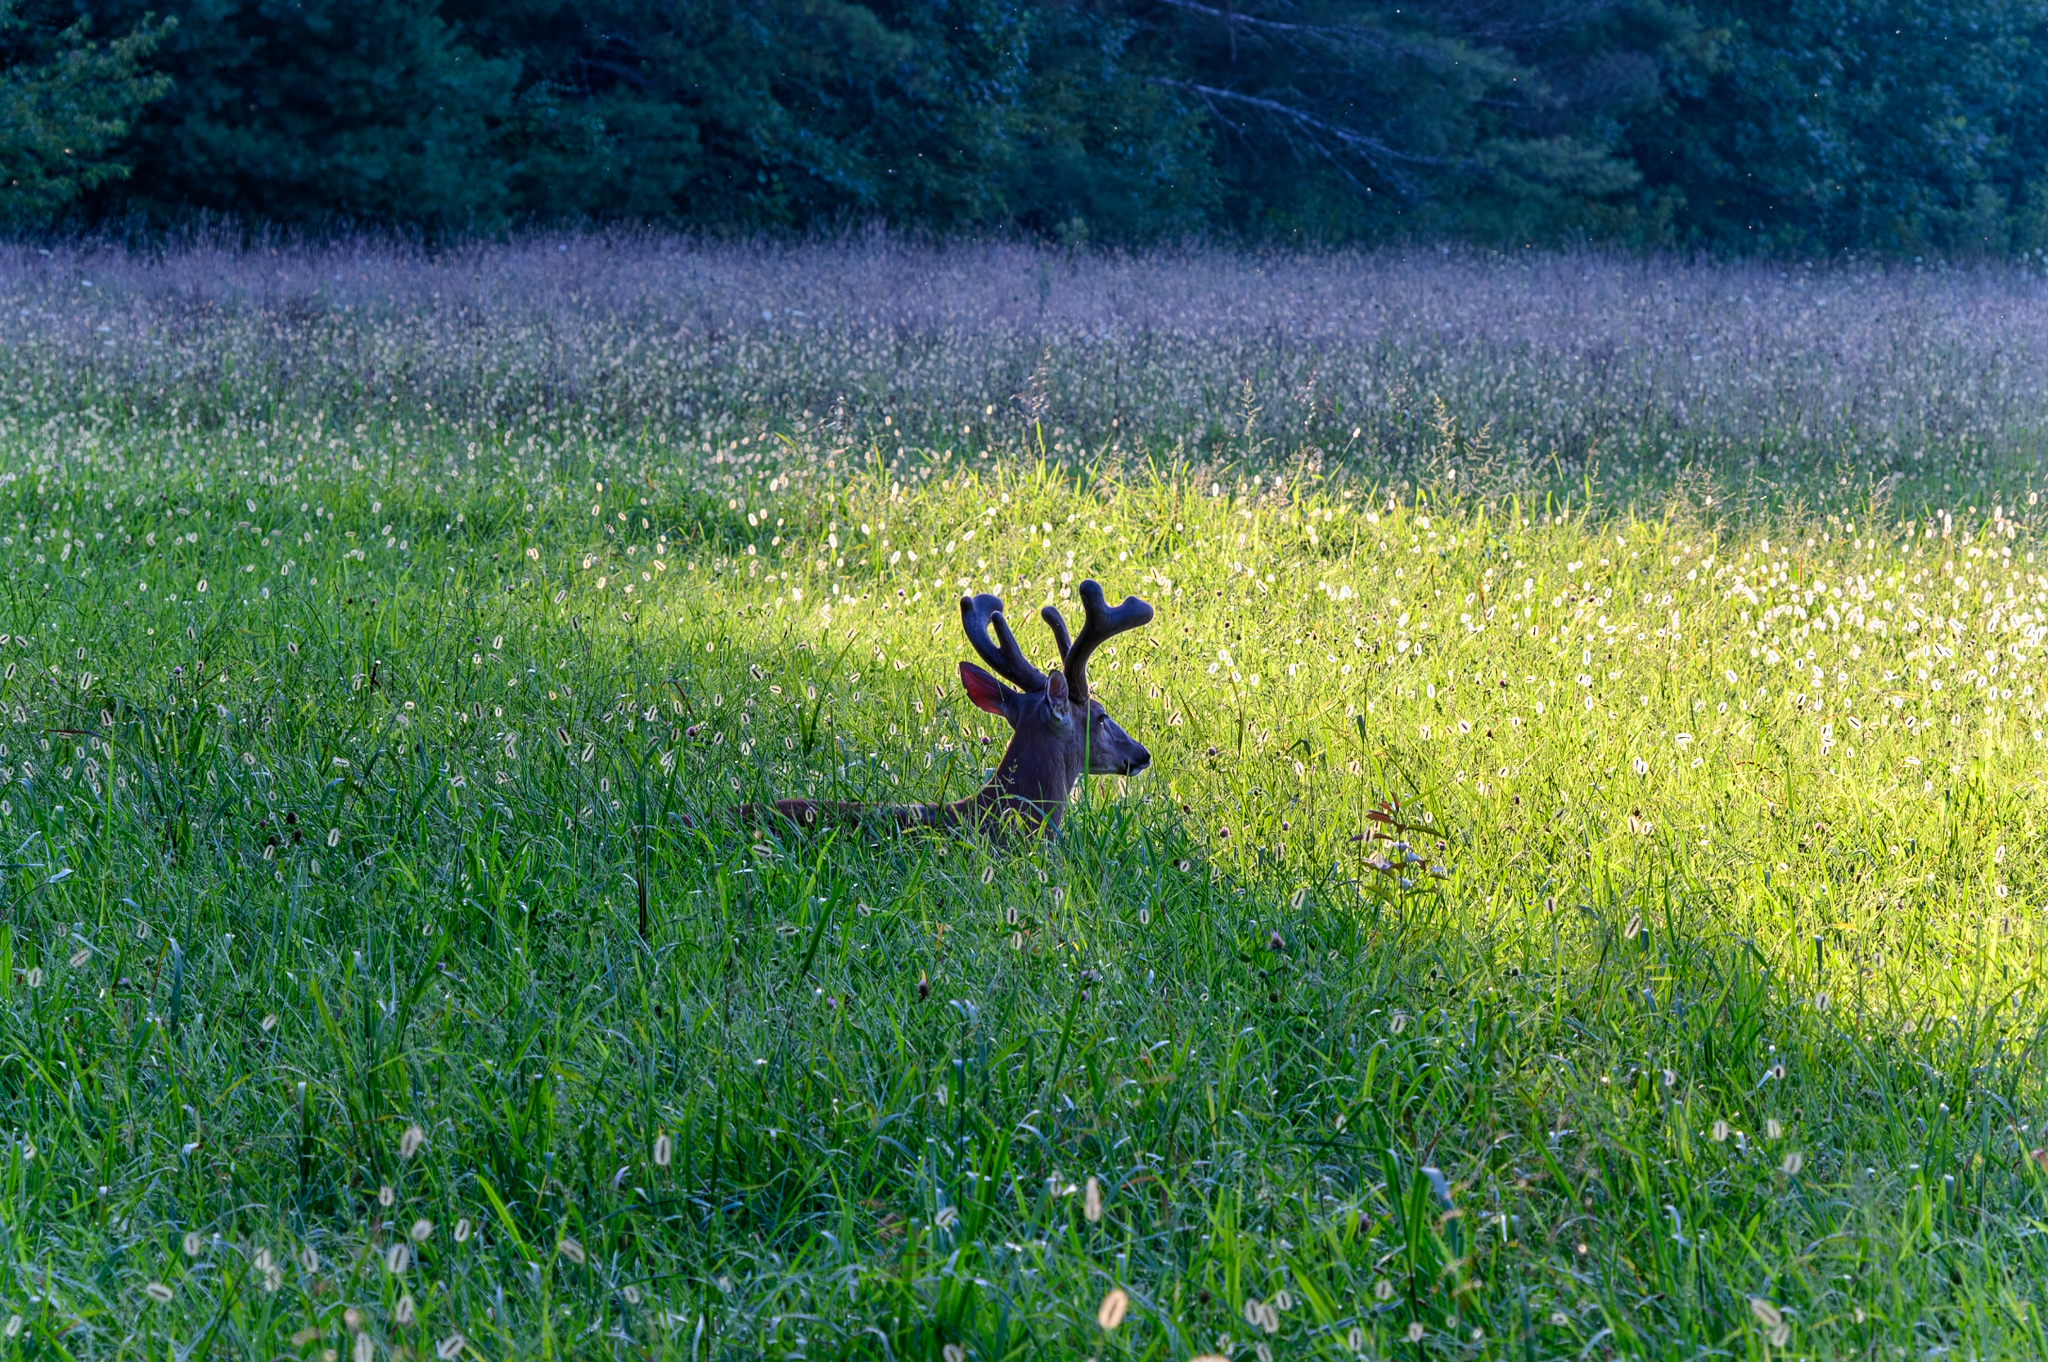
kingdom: Animalia
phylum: Chordata
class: Mammalia
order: Artiodactyla
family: Cervidae
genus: Odocoileus
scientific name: Odocoileus virginianus
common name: White-tailed deer
